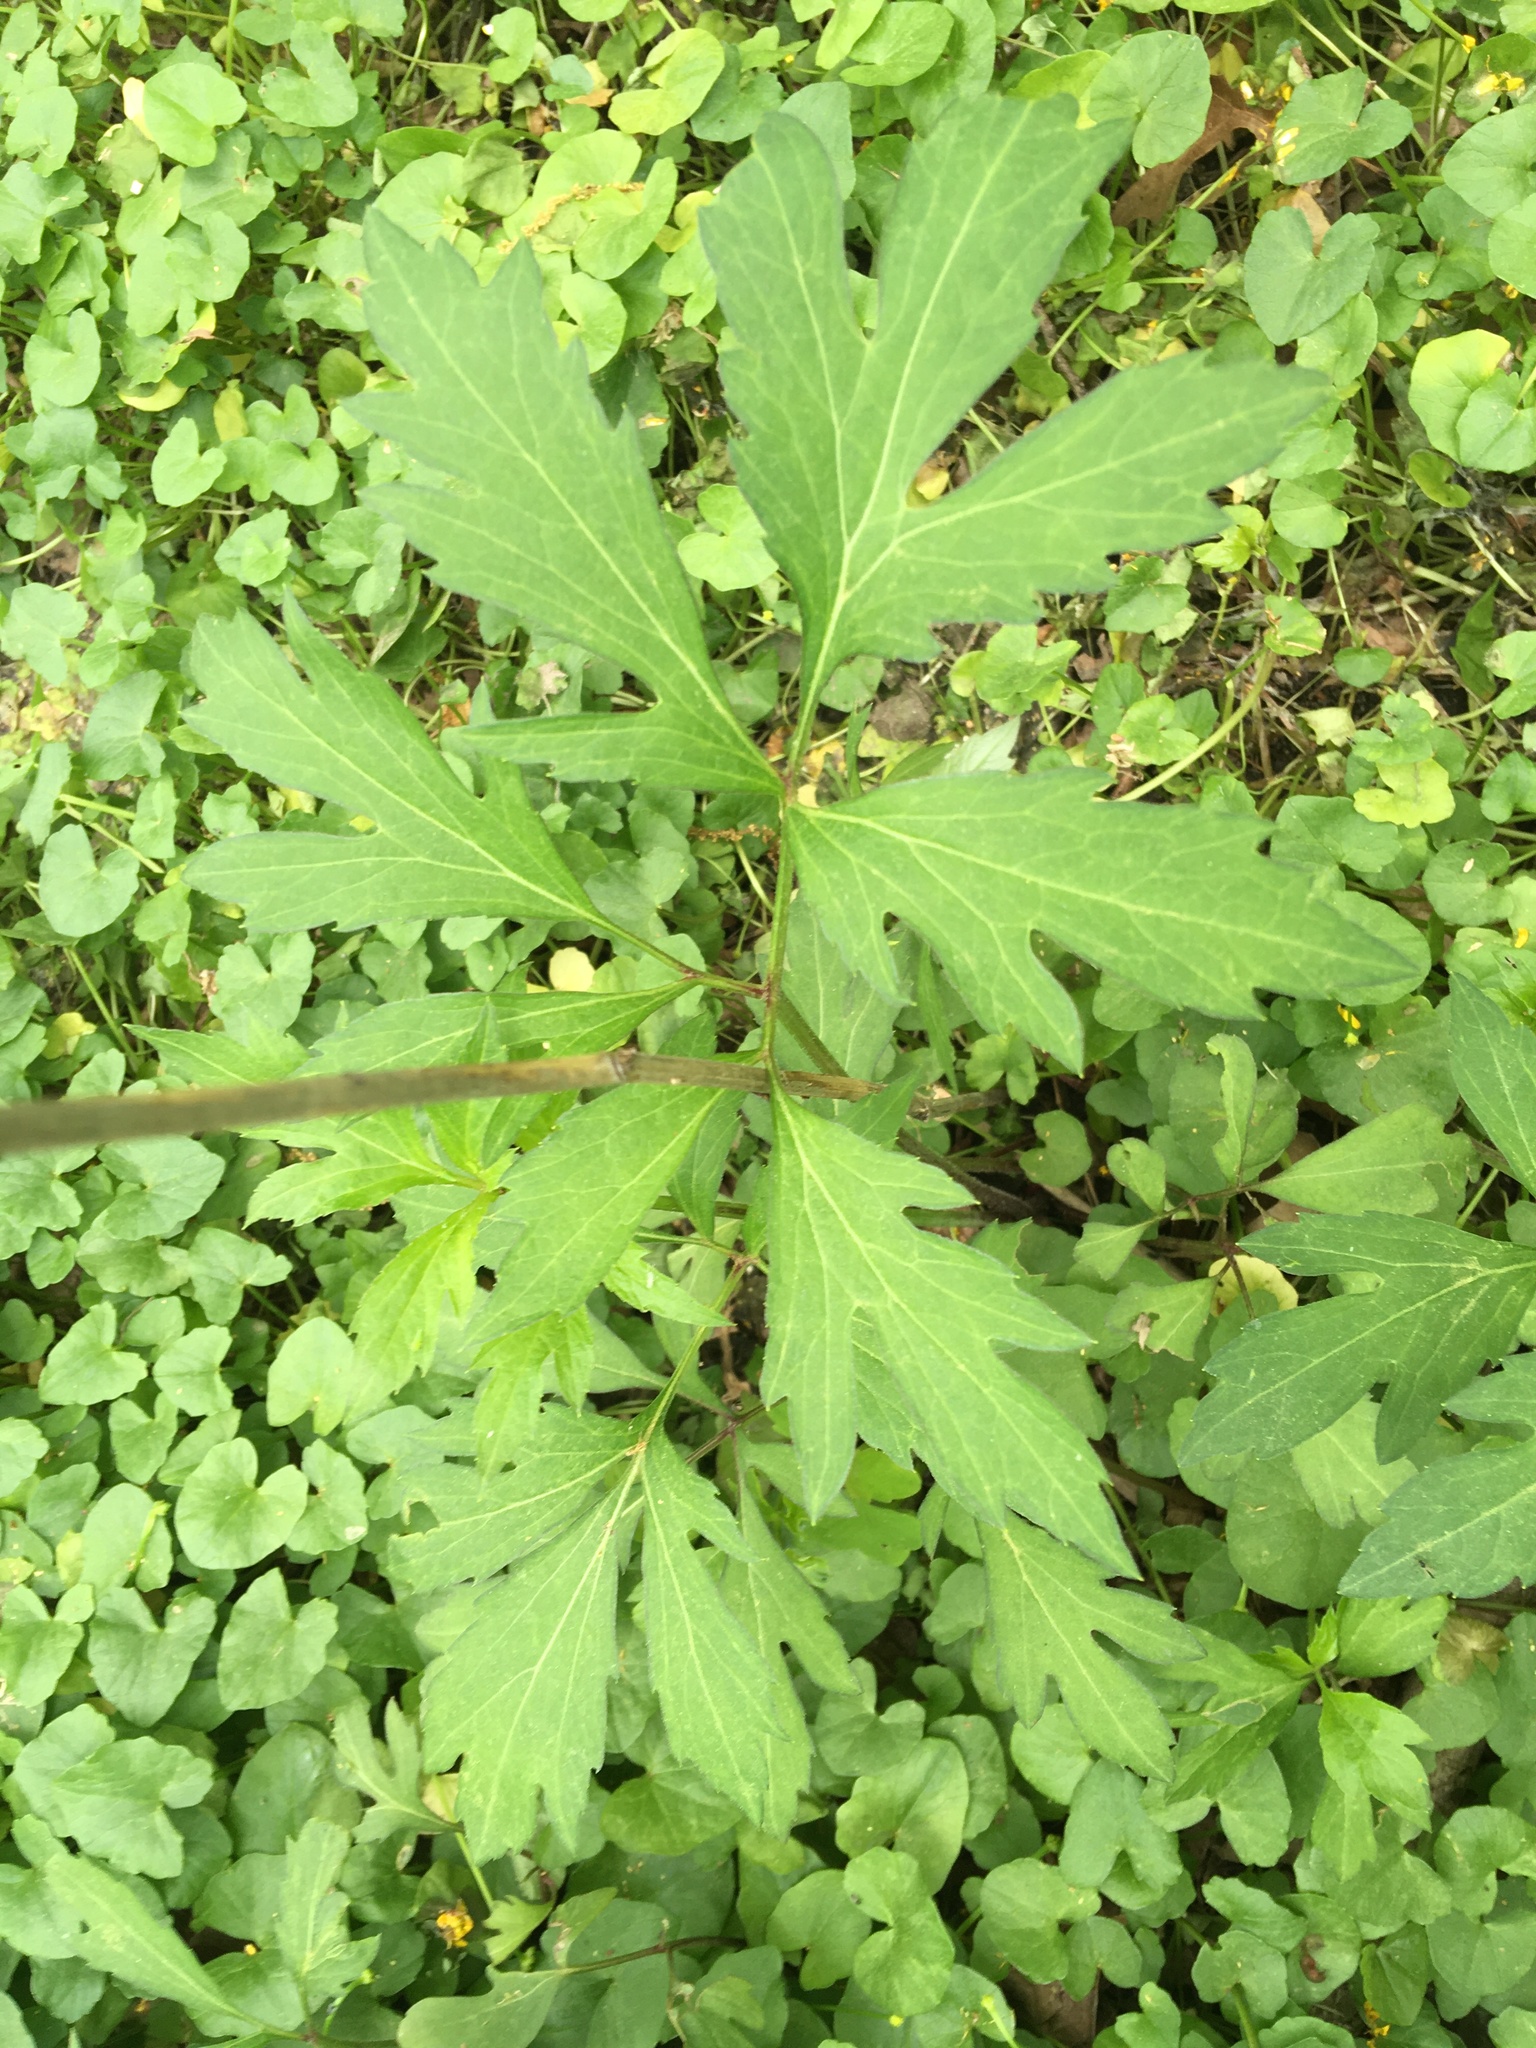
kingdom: Plantae
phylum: Tracheophyta
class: Magnoliopsida
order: Asterales
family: Asteraceae
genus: Rudbeckia
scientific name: Rudbeckia laciniata
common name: Coneflower
